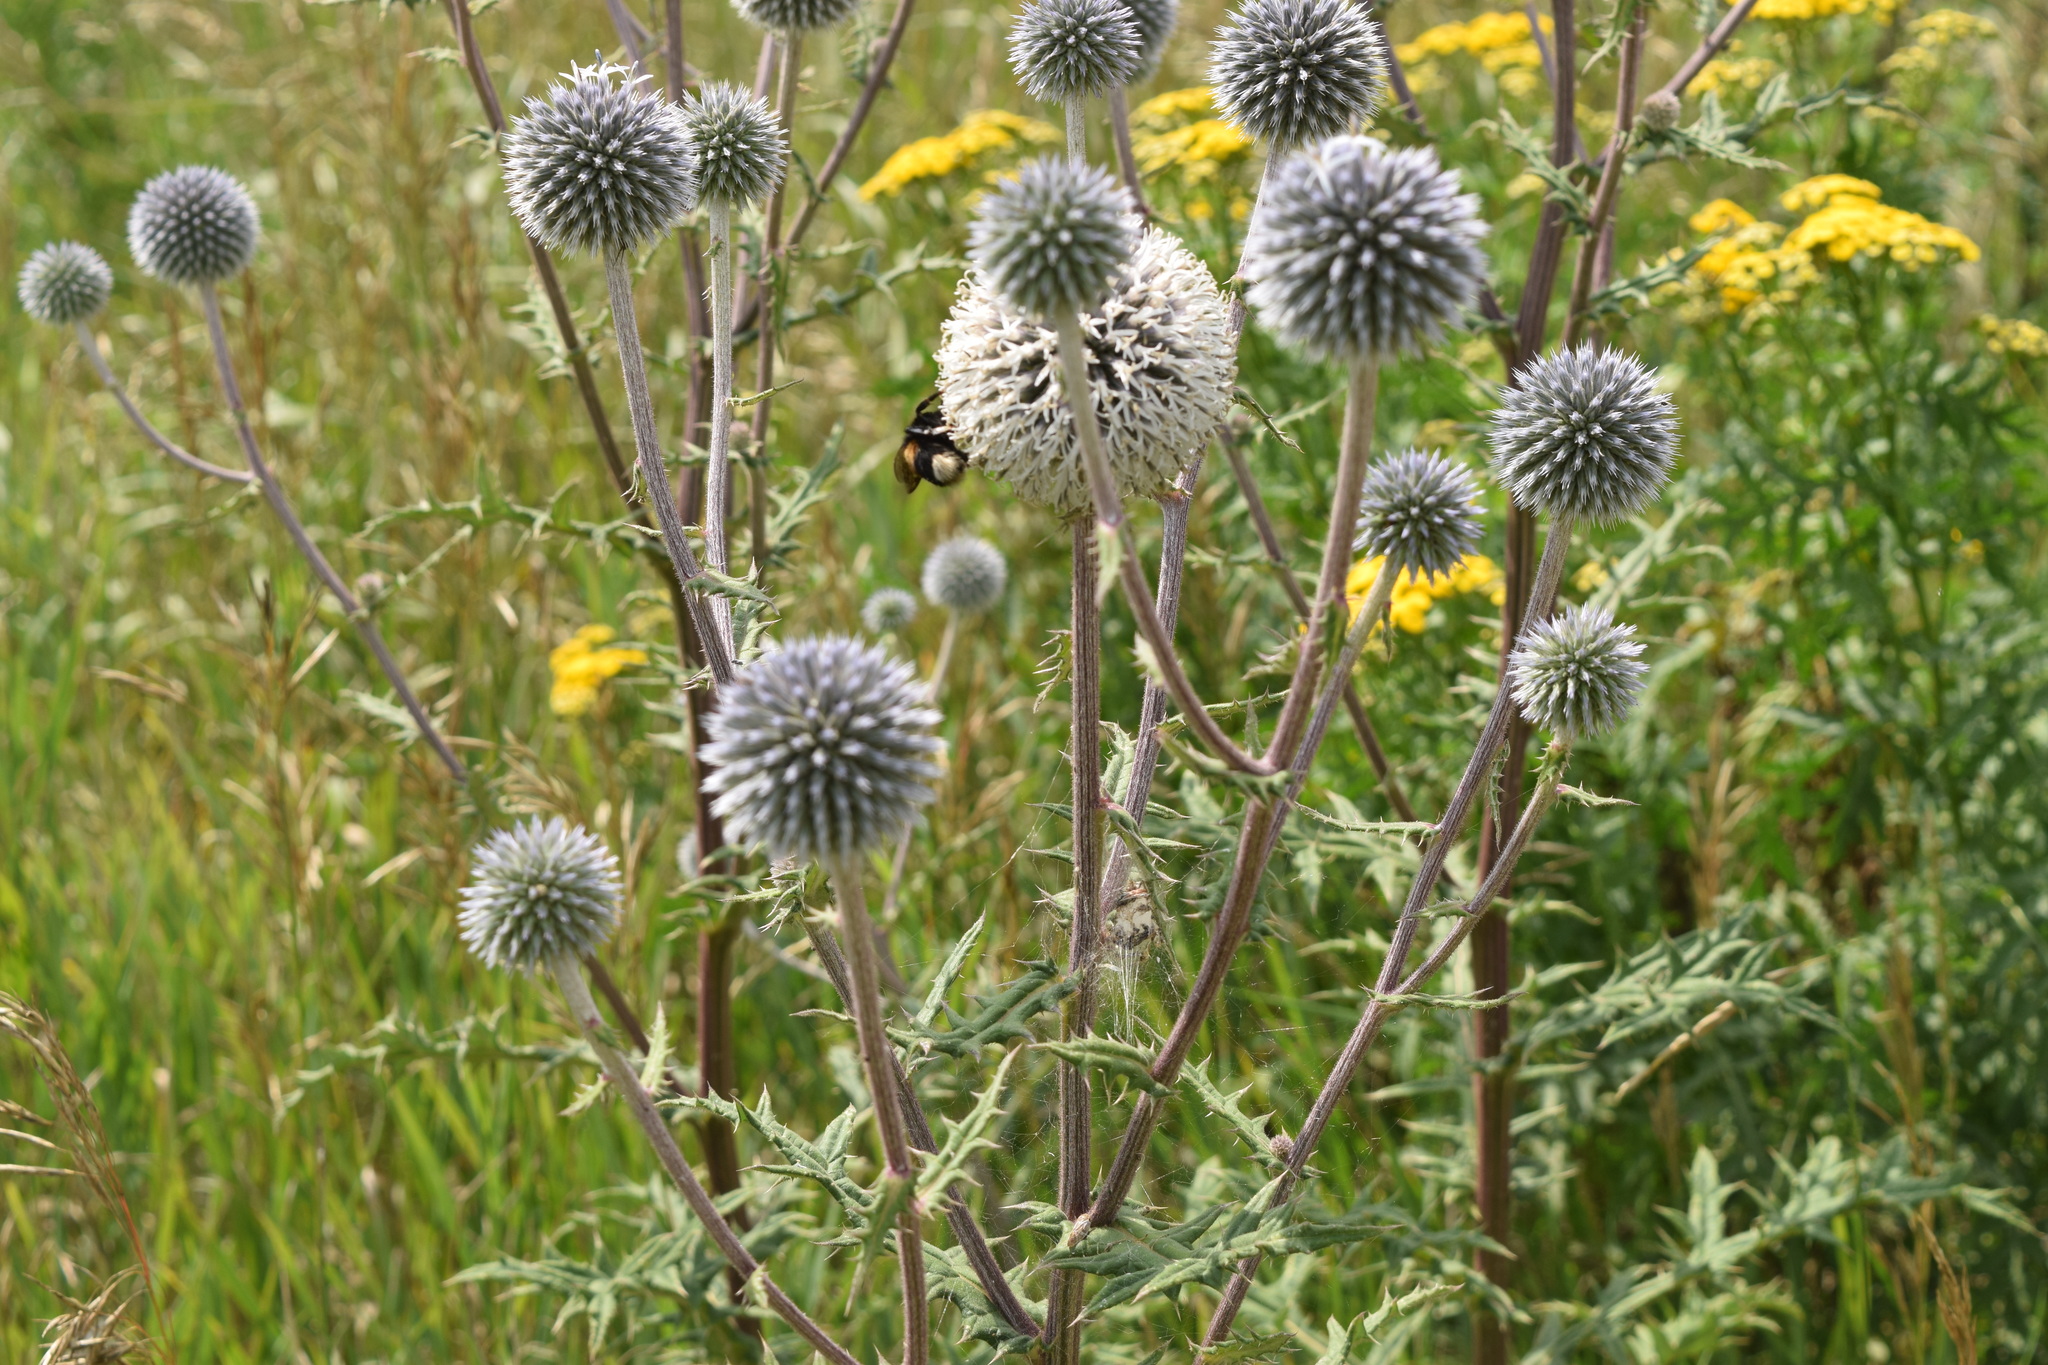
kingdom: Plantae
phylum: Tracheophyta
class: Magnoliopsida
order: Asterales
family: Asteraceae
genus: Echinops
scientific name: Echinops sphaerocephalus
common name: Glandular globe-thistle
